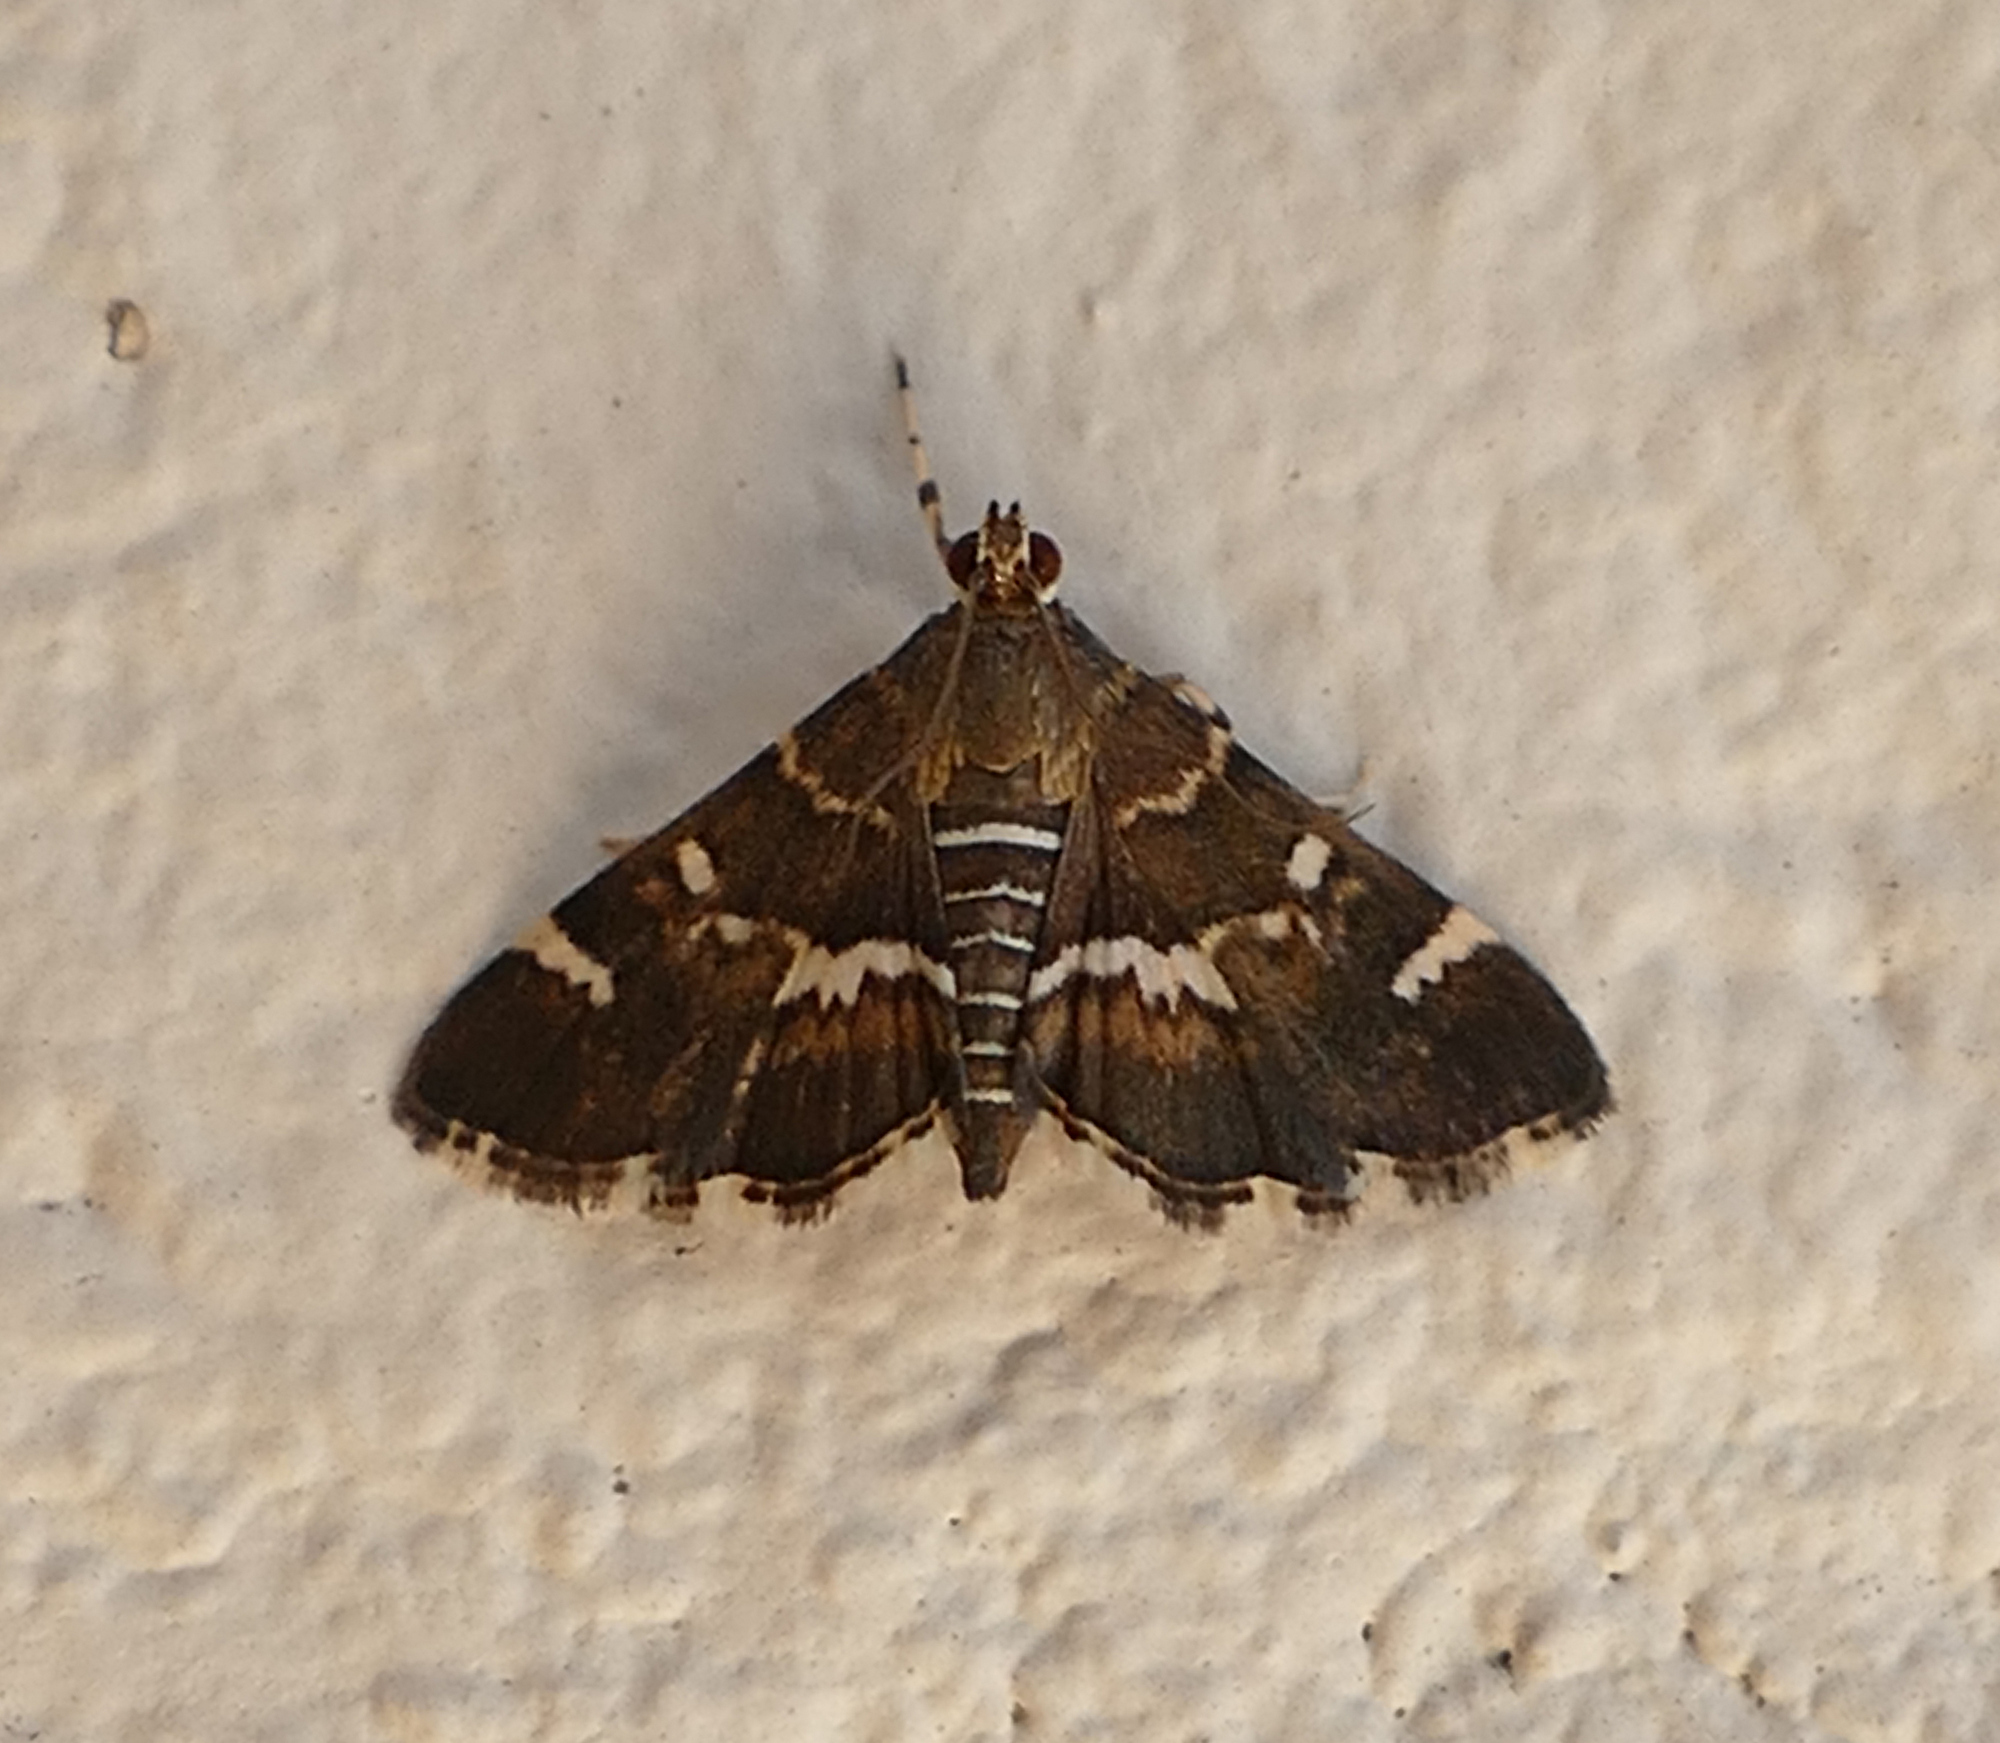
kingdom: Animalia
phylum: Arthropoda
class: Insecta
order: Lepidoptera
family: Crambidae
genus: Hymenia
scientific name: Hymenia perspectalis
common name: Spotted beet webworm
